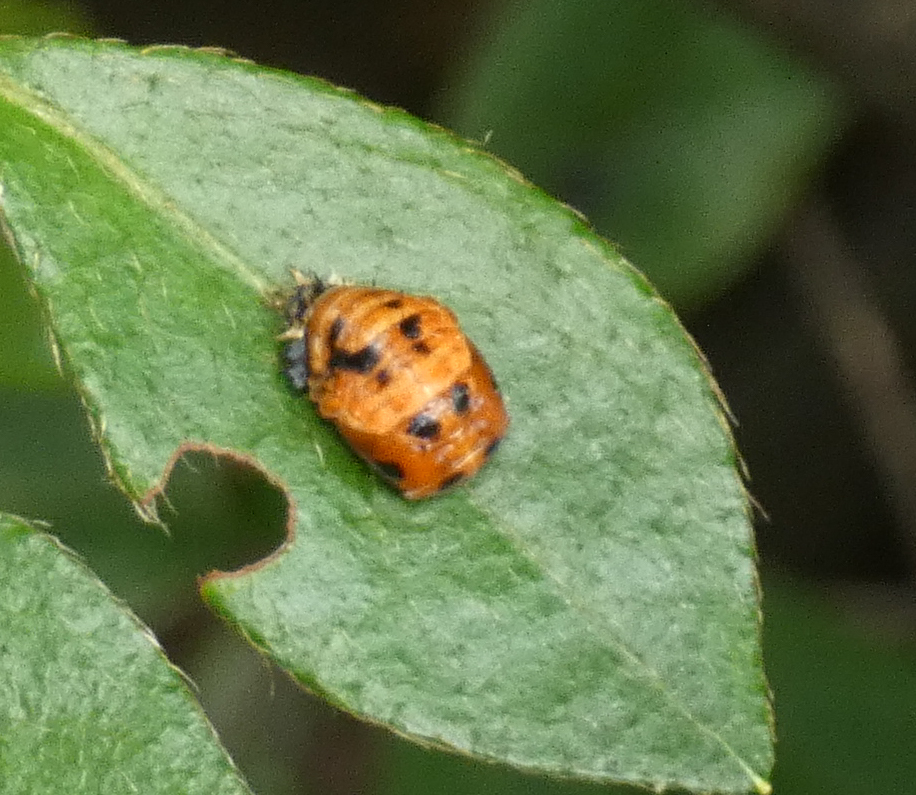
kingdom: Animalia
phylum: Arthropoda
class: Insecta
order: Coleoptera
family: Coccinellidae
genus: Harmonia
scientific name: Harmonia axyridis
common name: Harlequin ladybird
